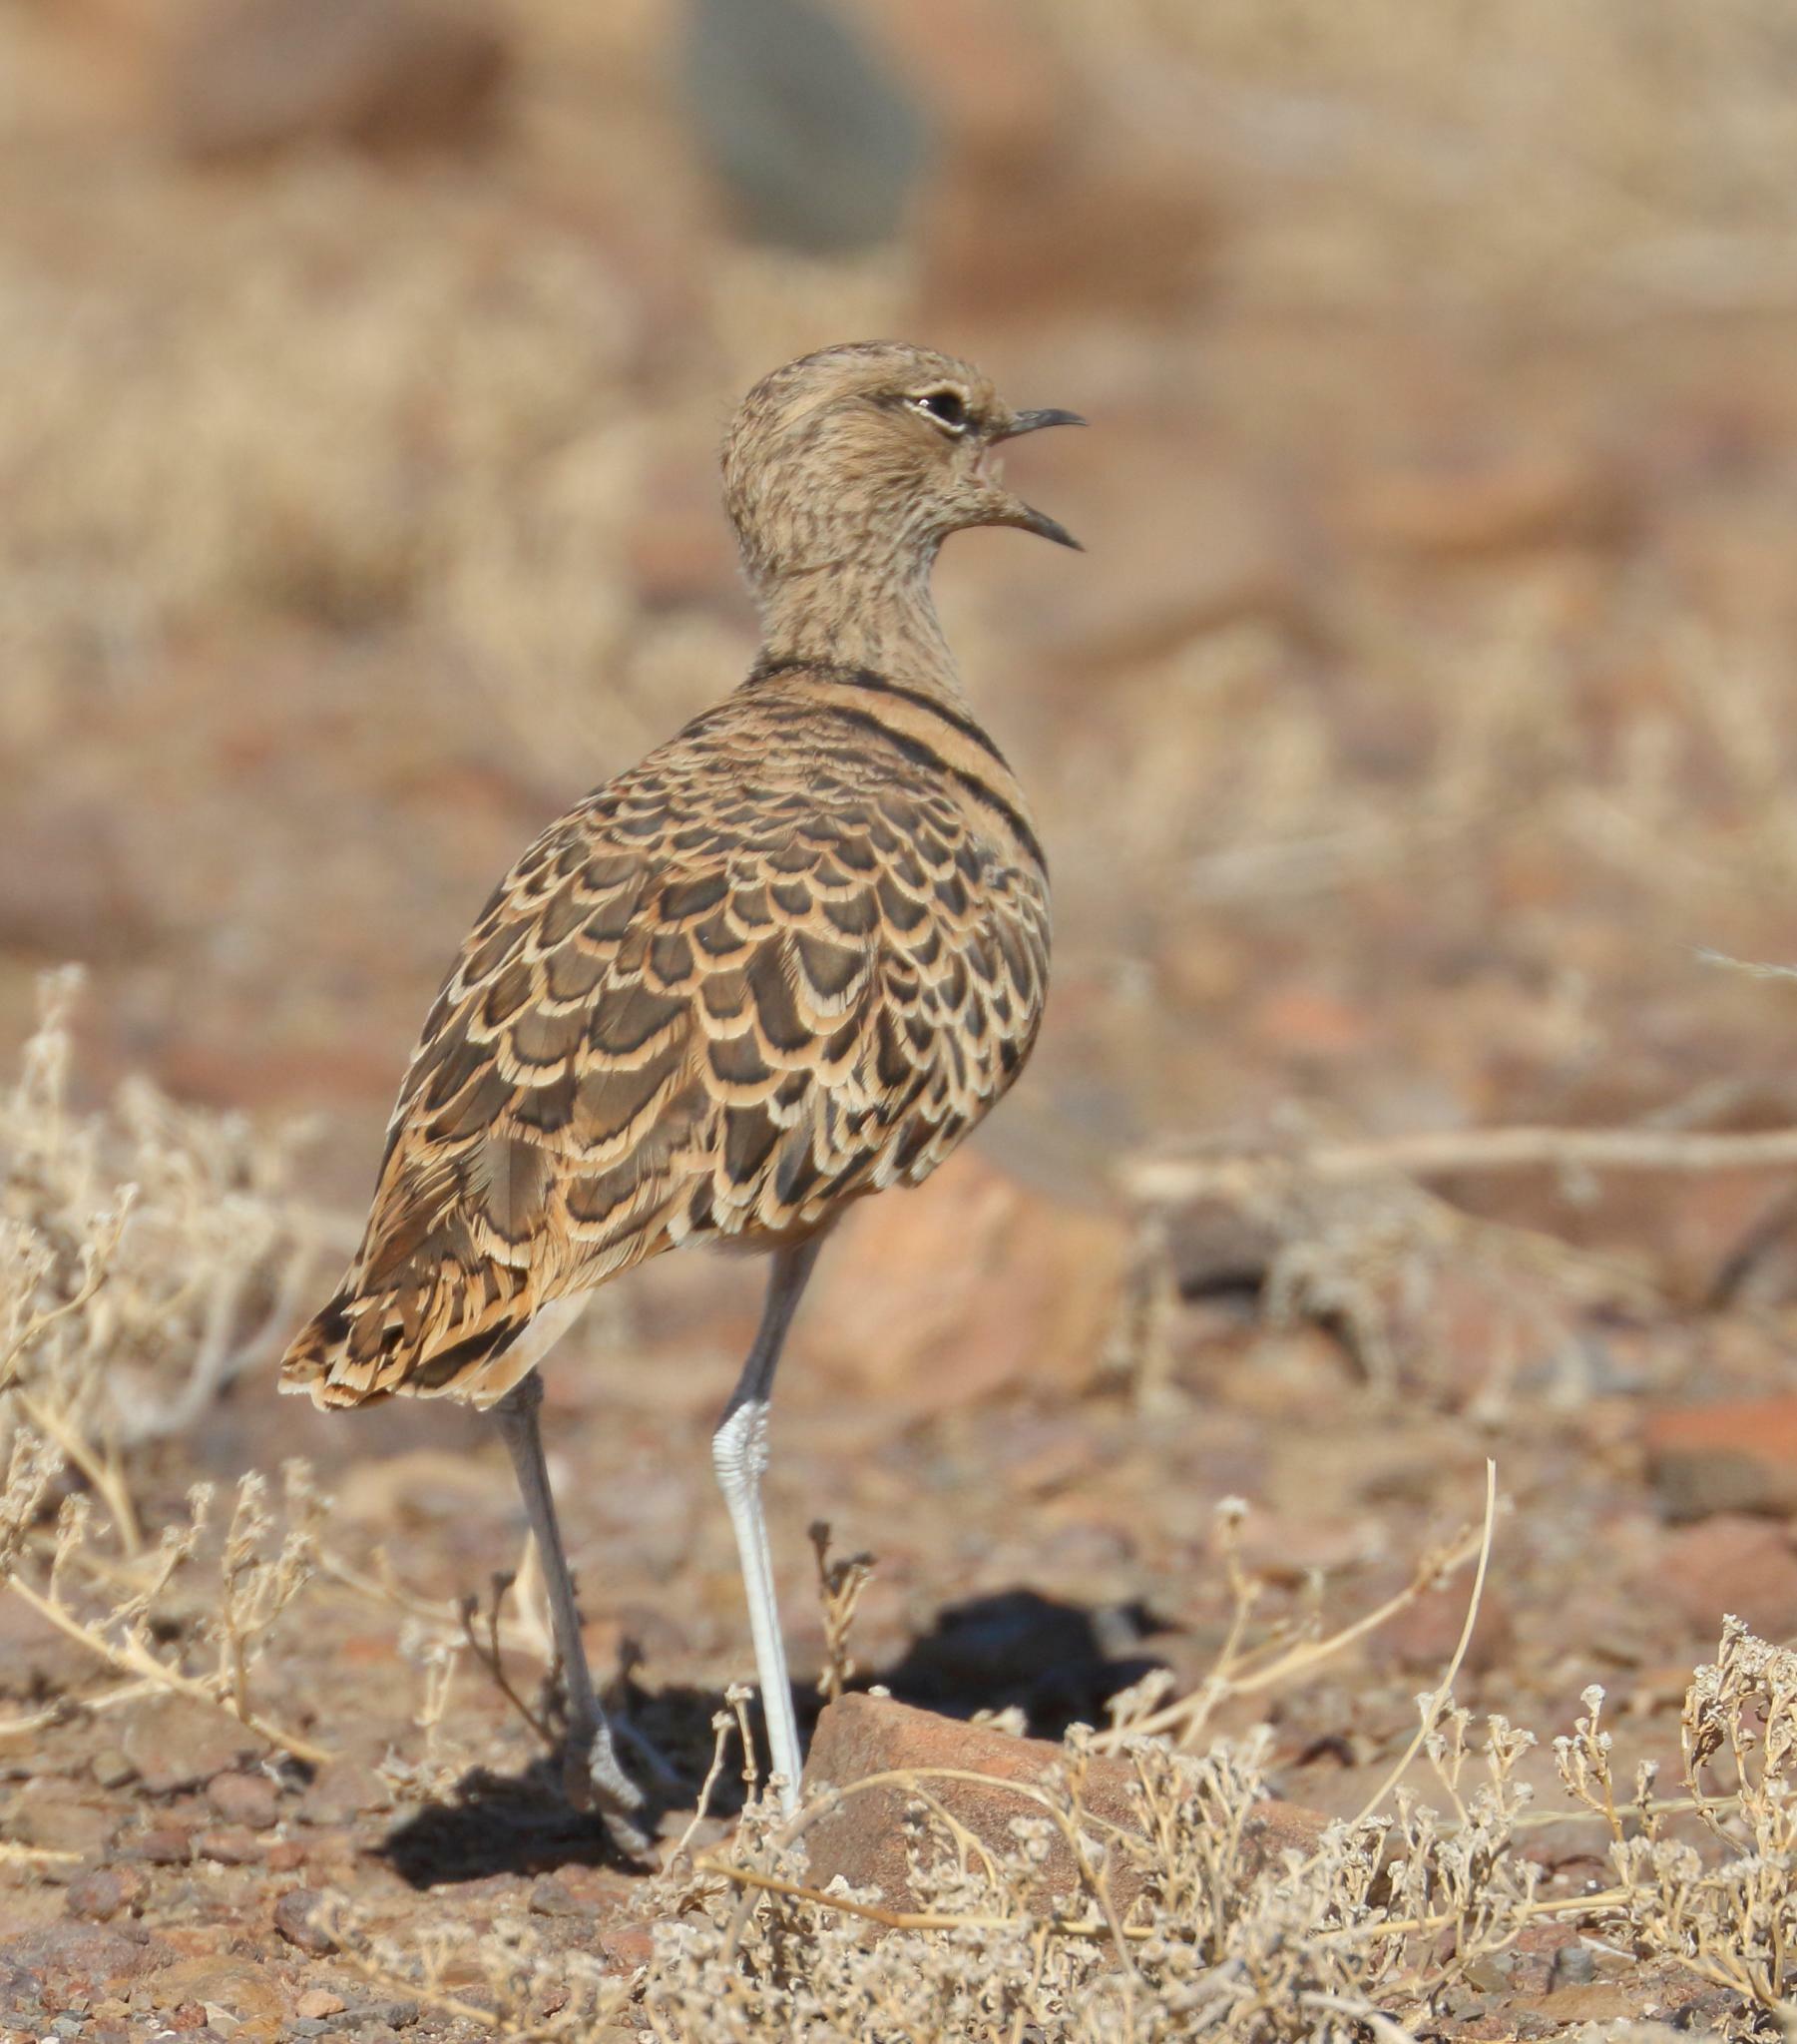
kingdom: Animalia
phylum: Chordata
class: Aves
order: Charadriiformes
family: Glareolidae
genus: Rhinoptilus
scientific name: Rhinoptilus africanus
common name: Double-banded courser
